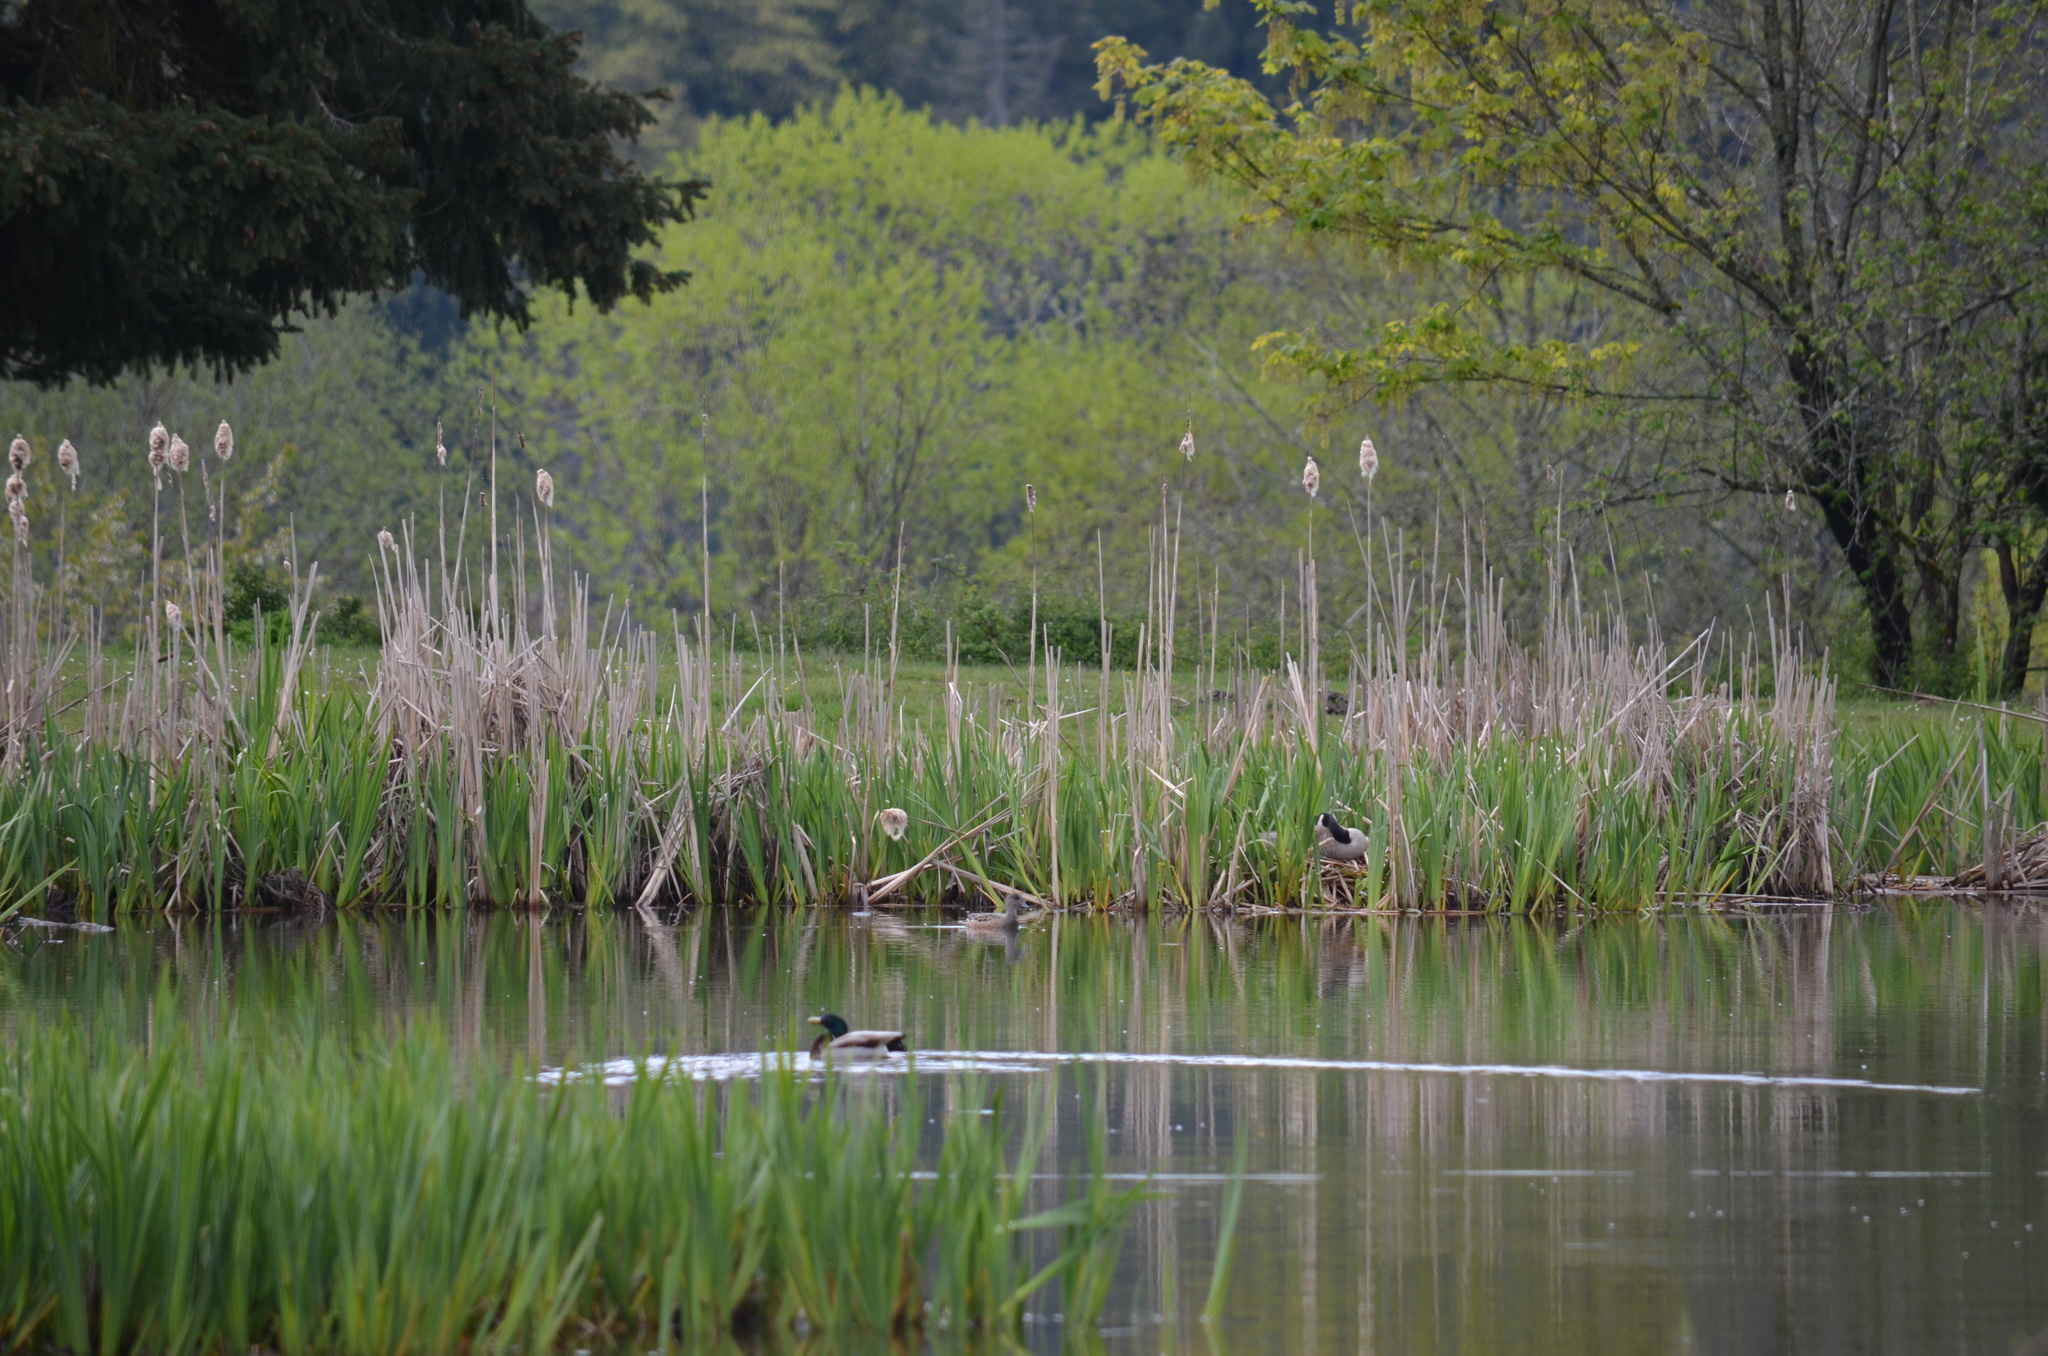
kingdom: Animalia
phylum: Chordata
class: Aves
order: Anseriformes
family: Anatidae
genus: Branta
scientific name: Branta canadensis
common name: Canada goose
